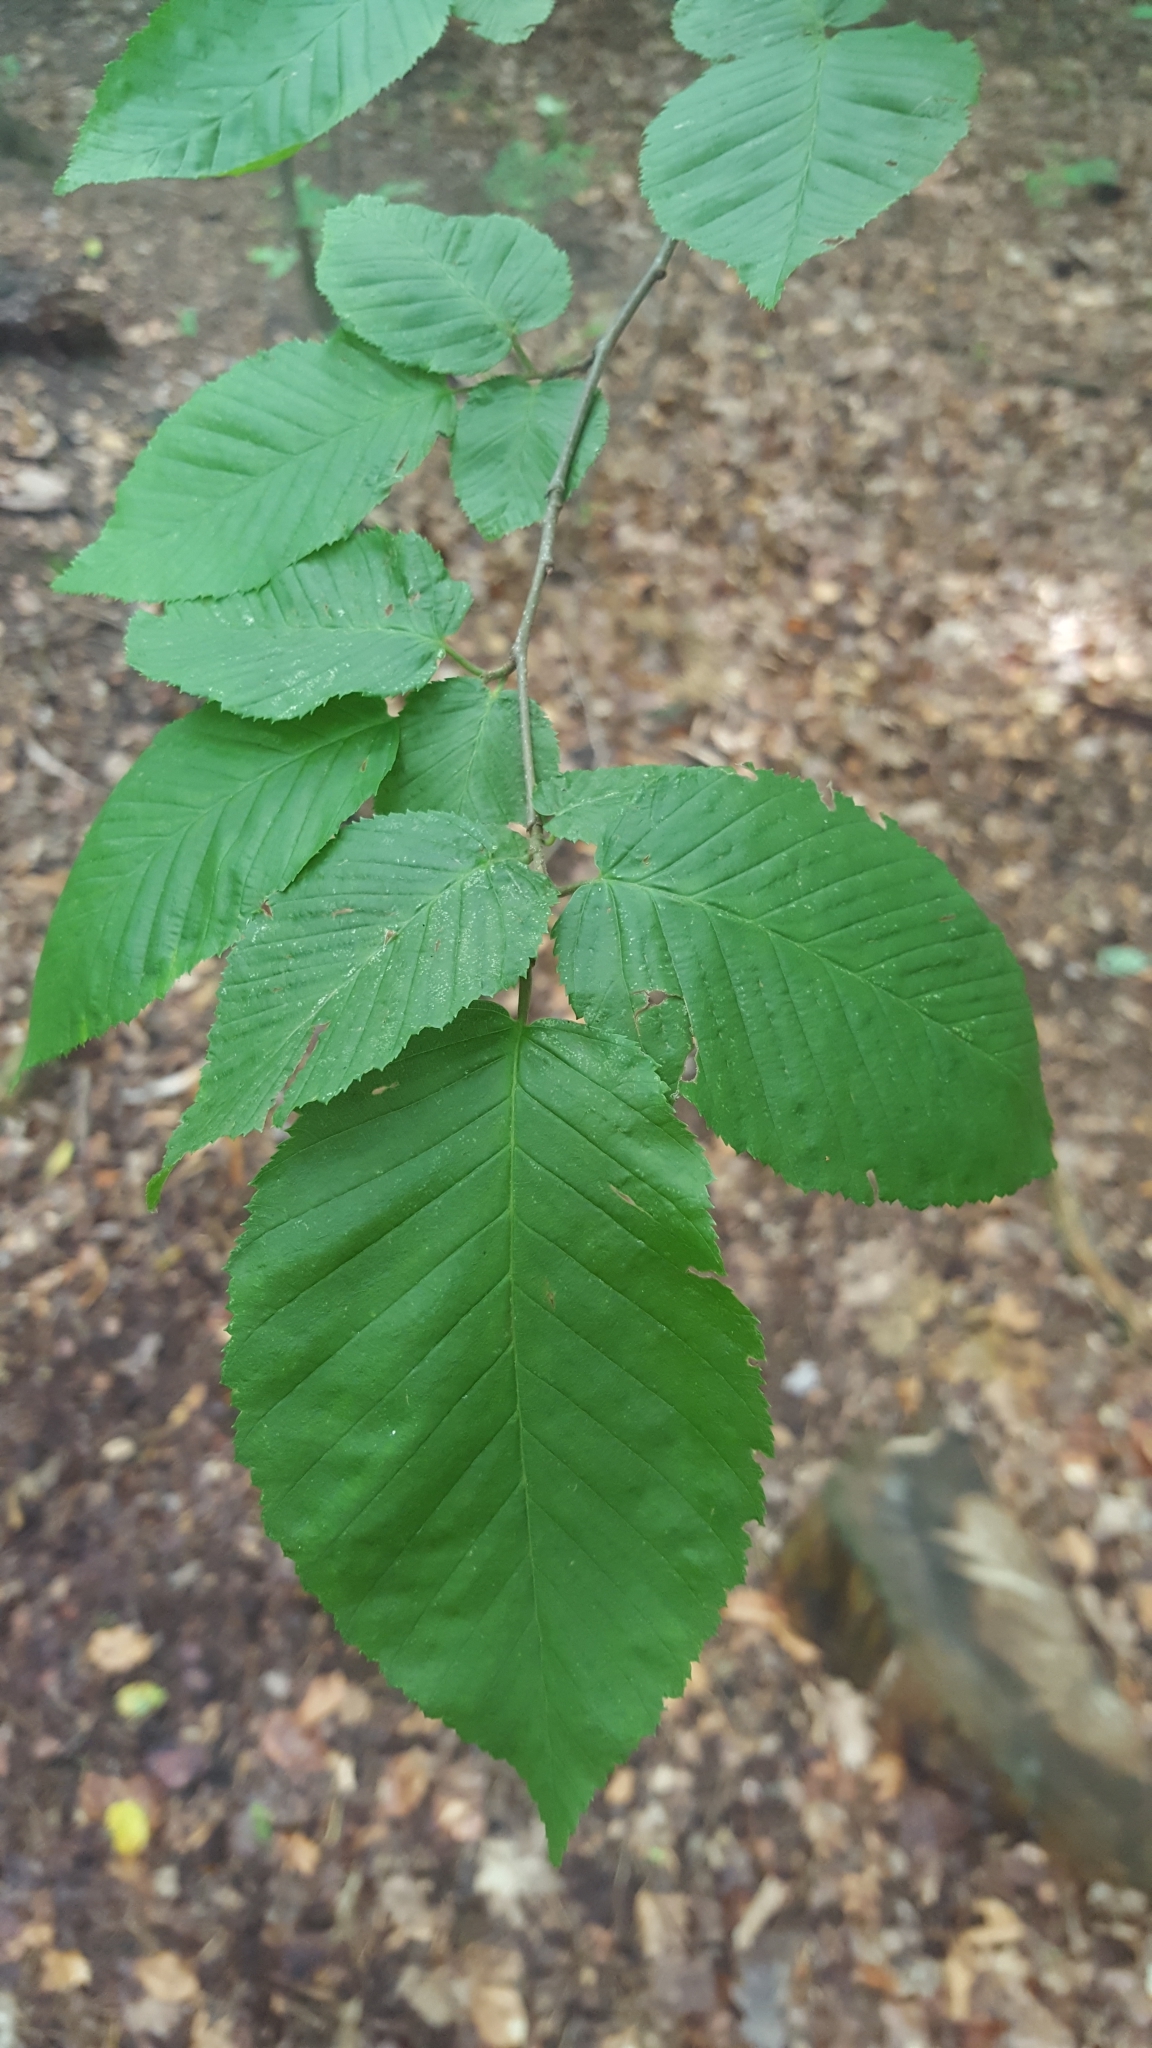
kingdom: Plantae
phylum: Tracheophyta
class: Magnoliopsida
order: Fagales
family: Betulaceae
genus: Carpinus
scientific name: Carpinus betulus
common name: Hornbeam
